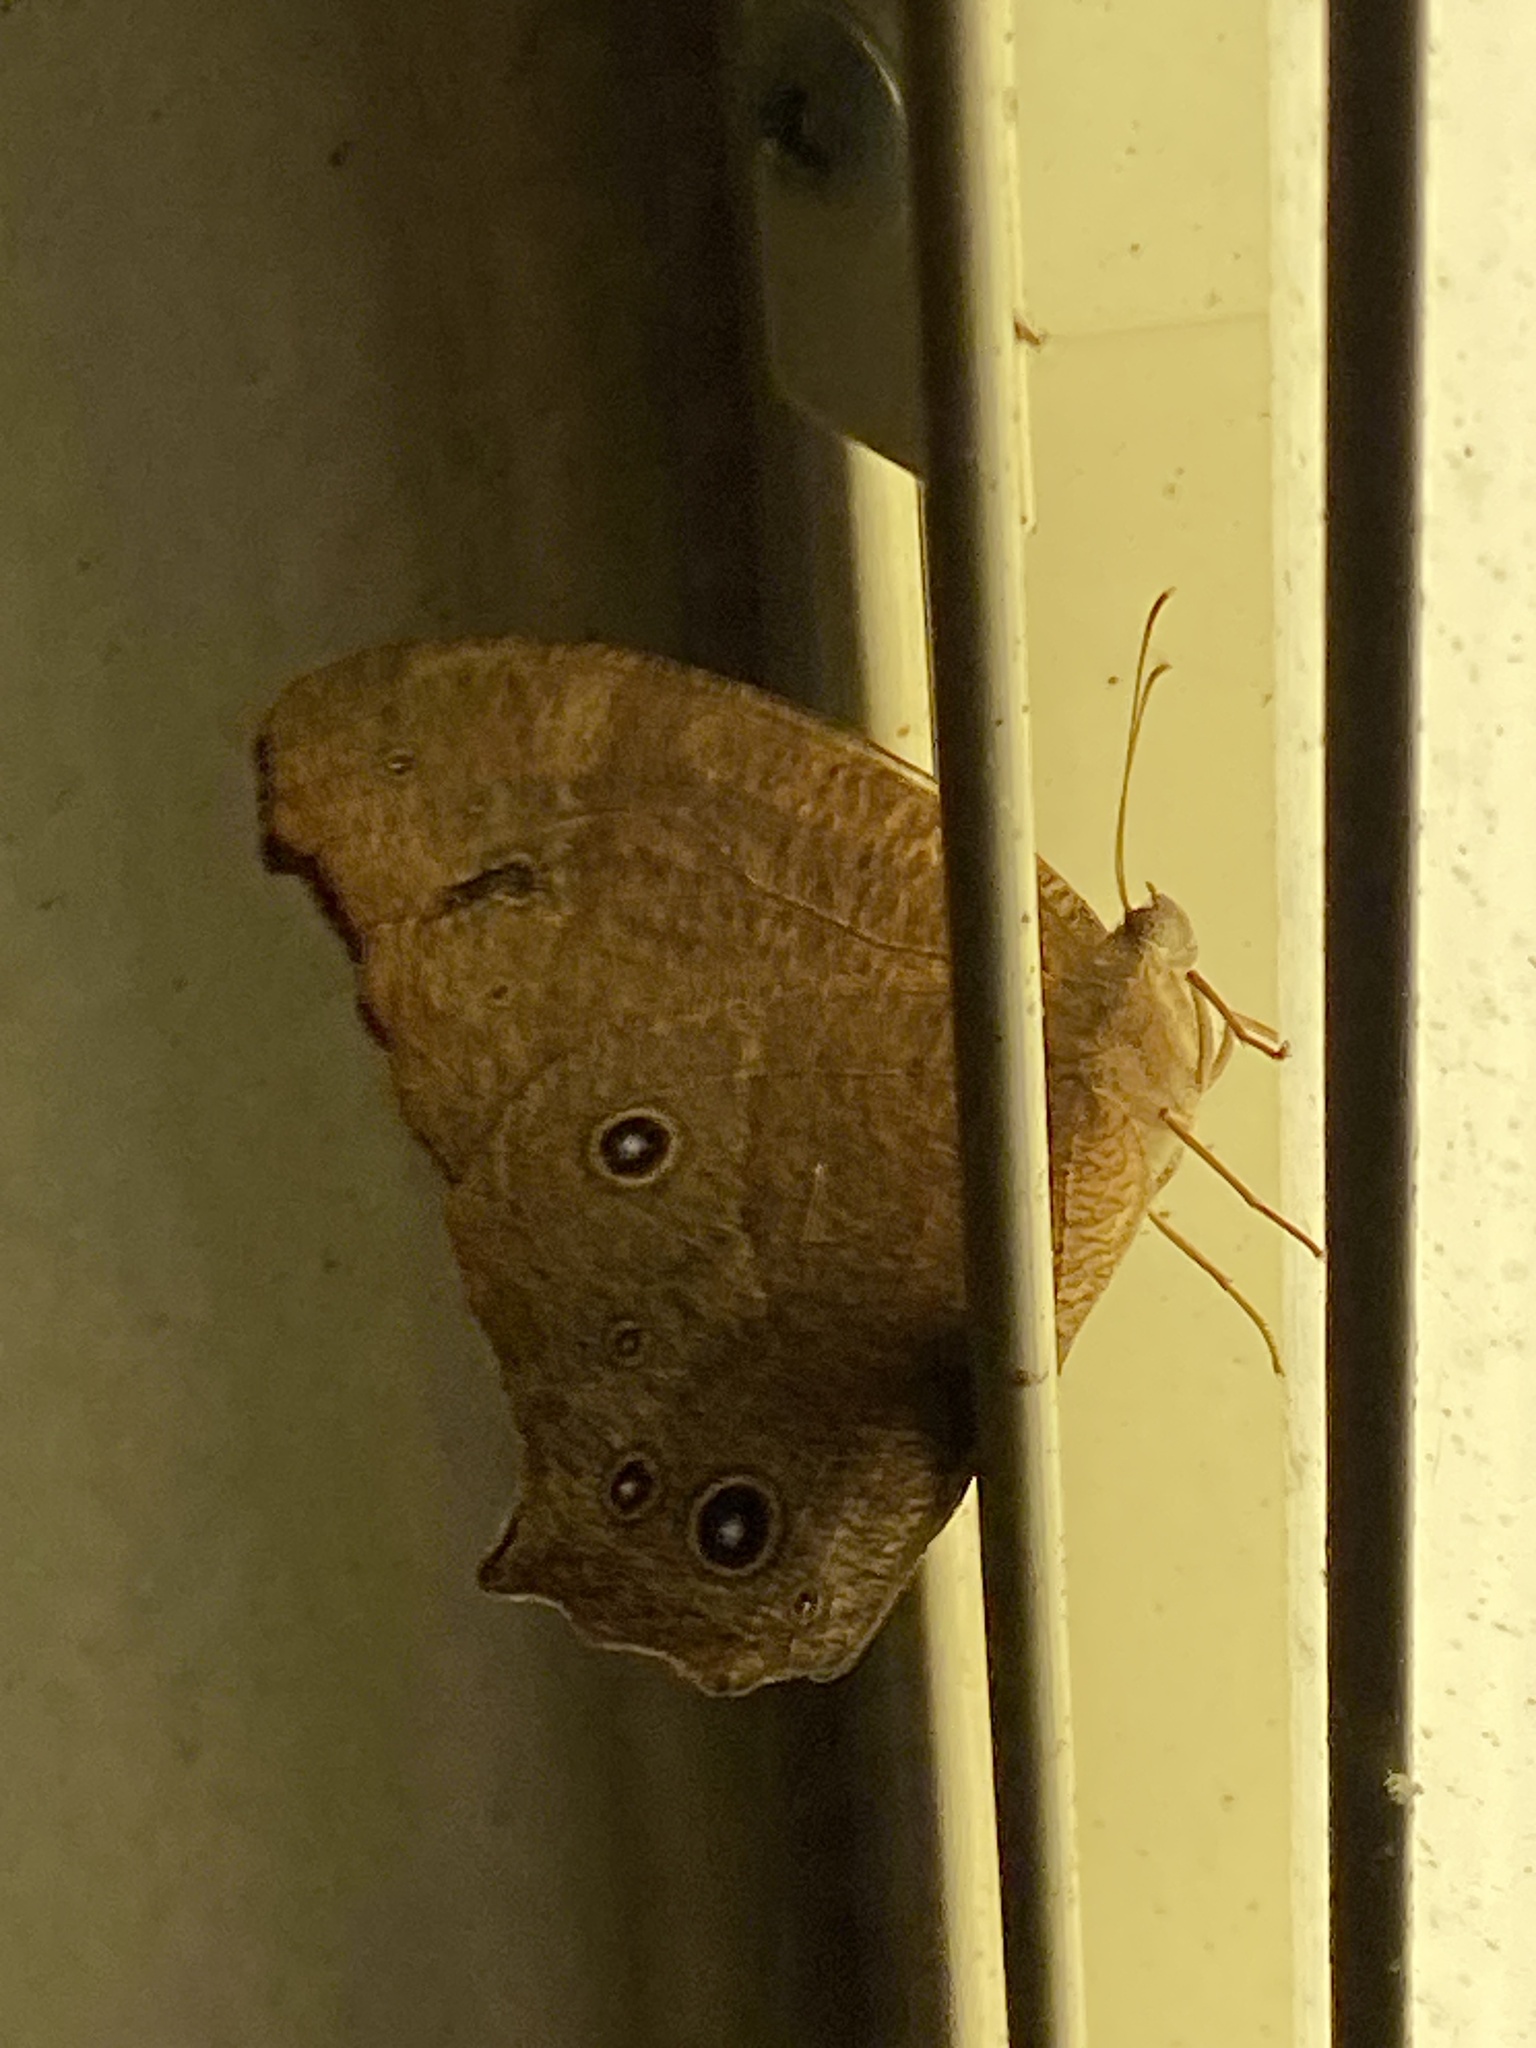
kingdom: Animalia
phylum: Arthropoda
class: Insecta
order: Lepidoptera
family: Nymphalidae
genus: Melanitis
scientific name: Melanitis leda
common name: Twilight brown
